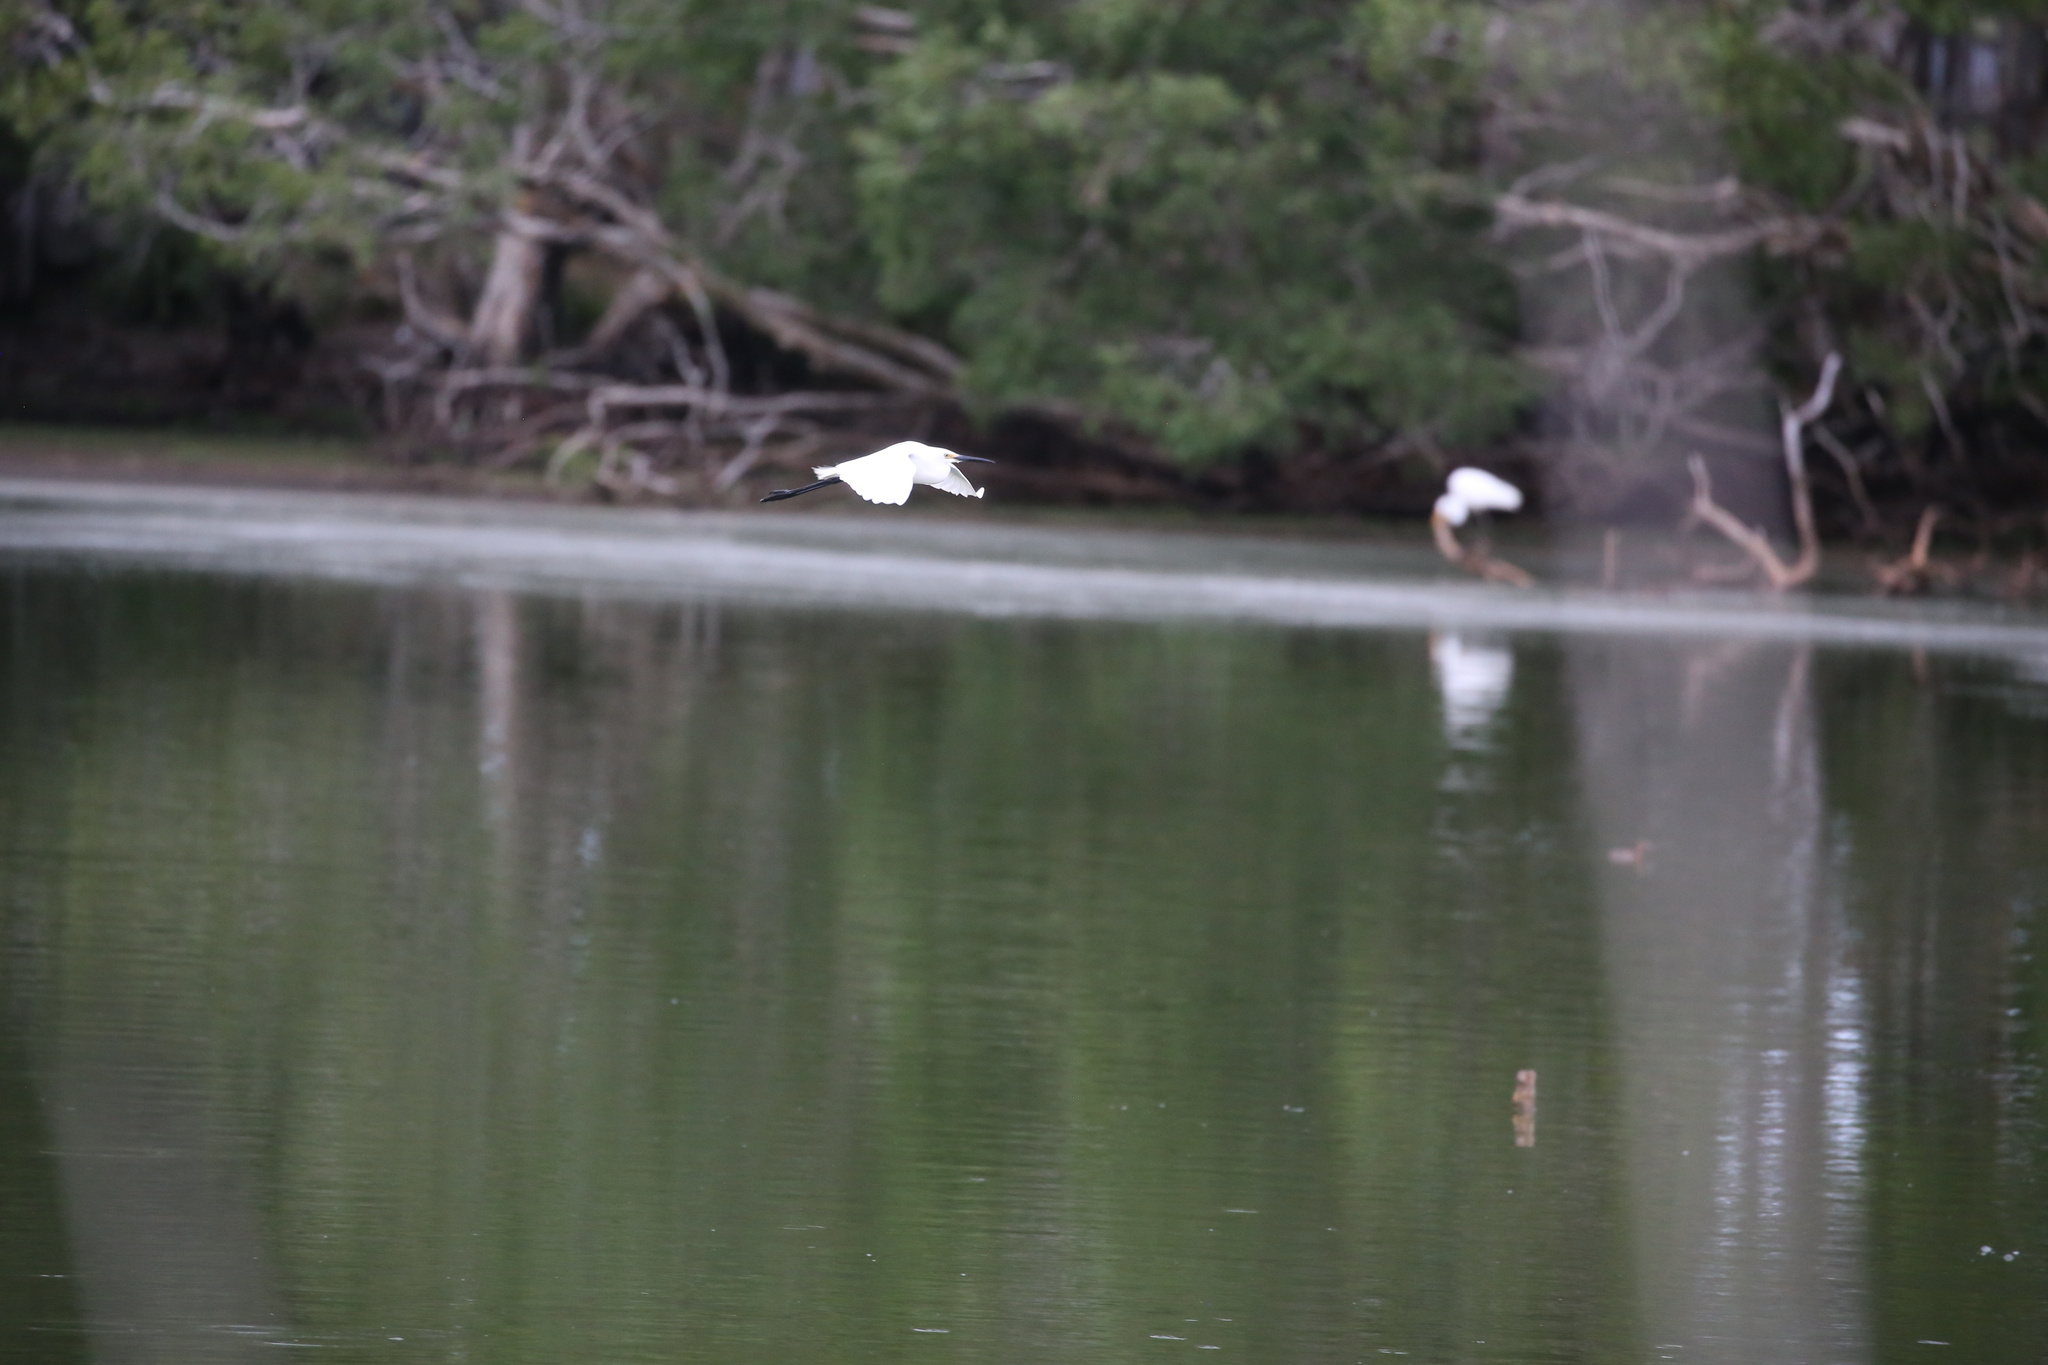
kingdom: Animalia
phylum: Chordata
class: Aves
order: Pelecaniformes
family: Ardeidae
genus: Egretta
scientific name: Egretta garzetta
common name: Little egret
